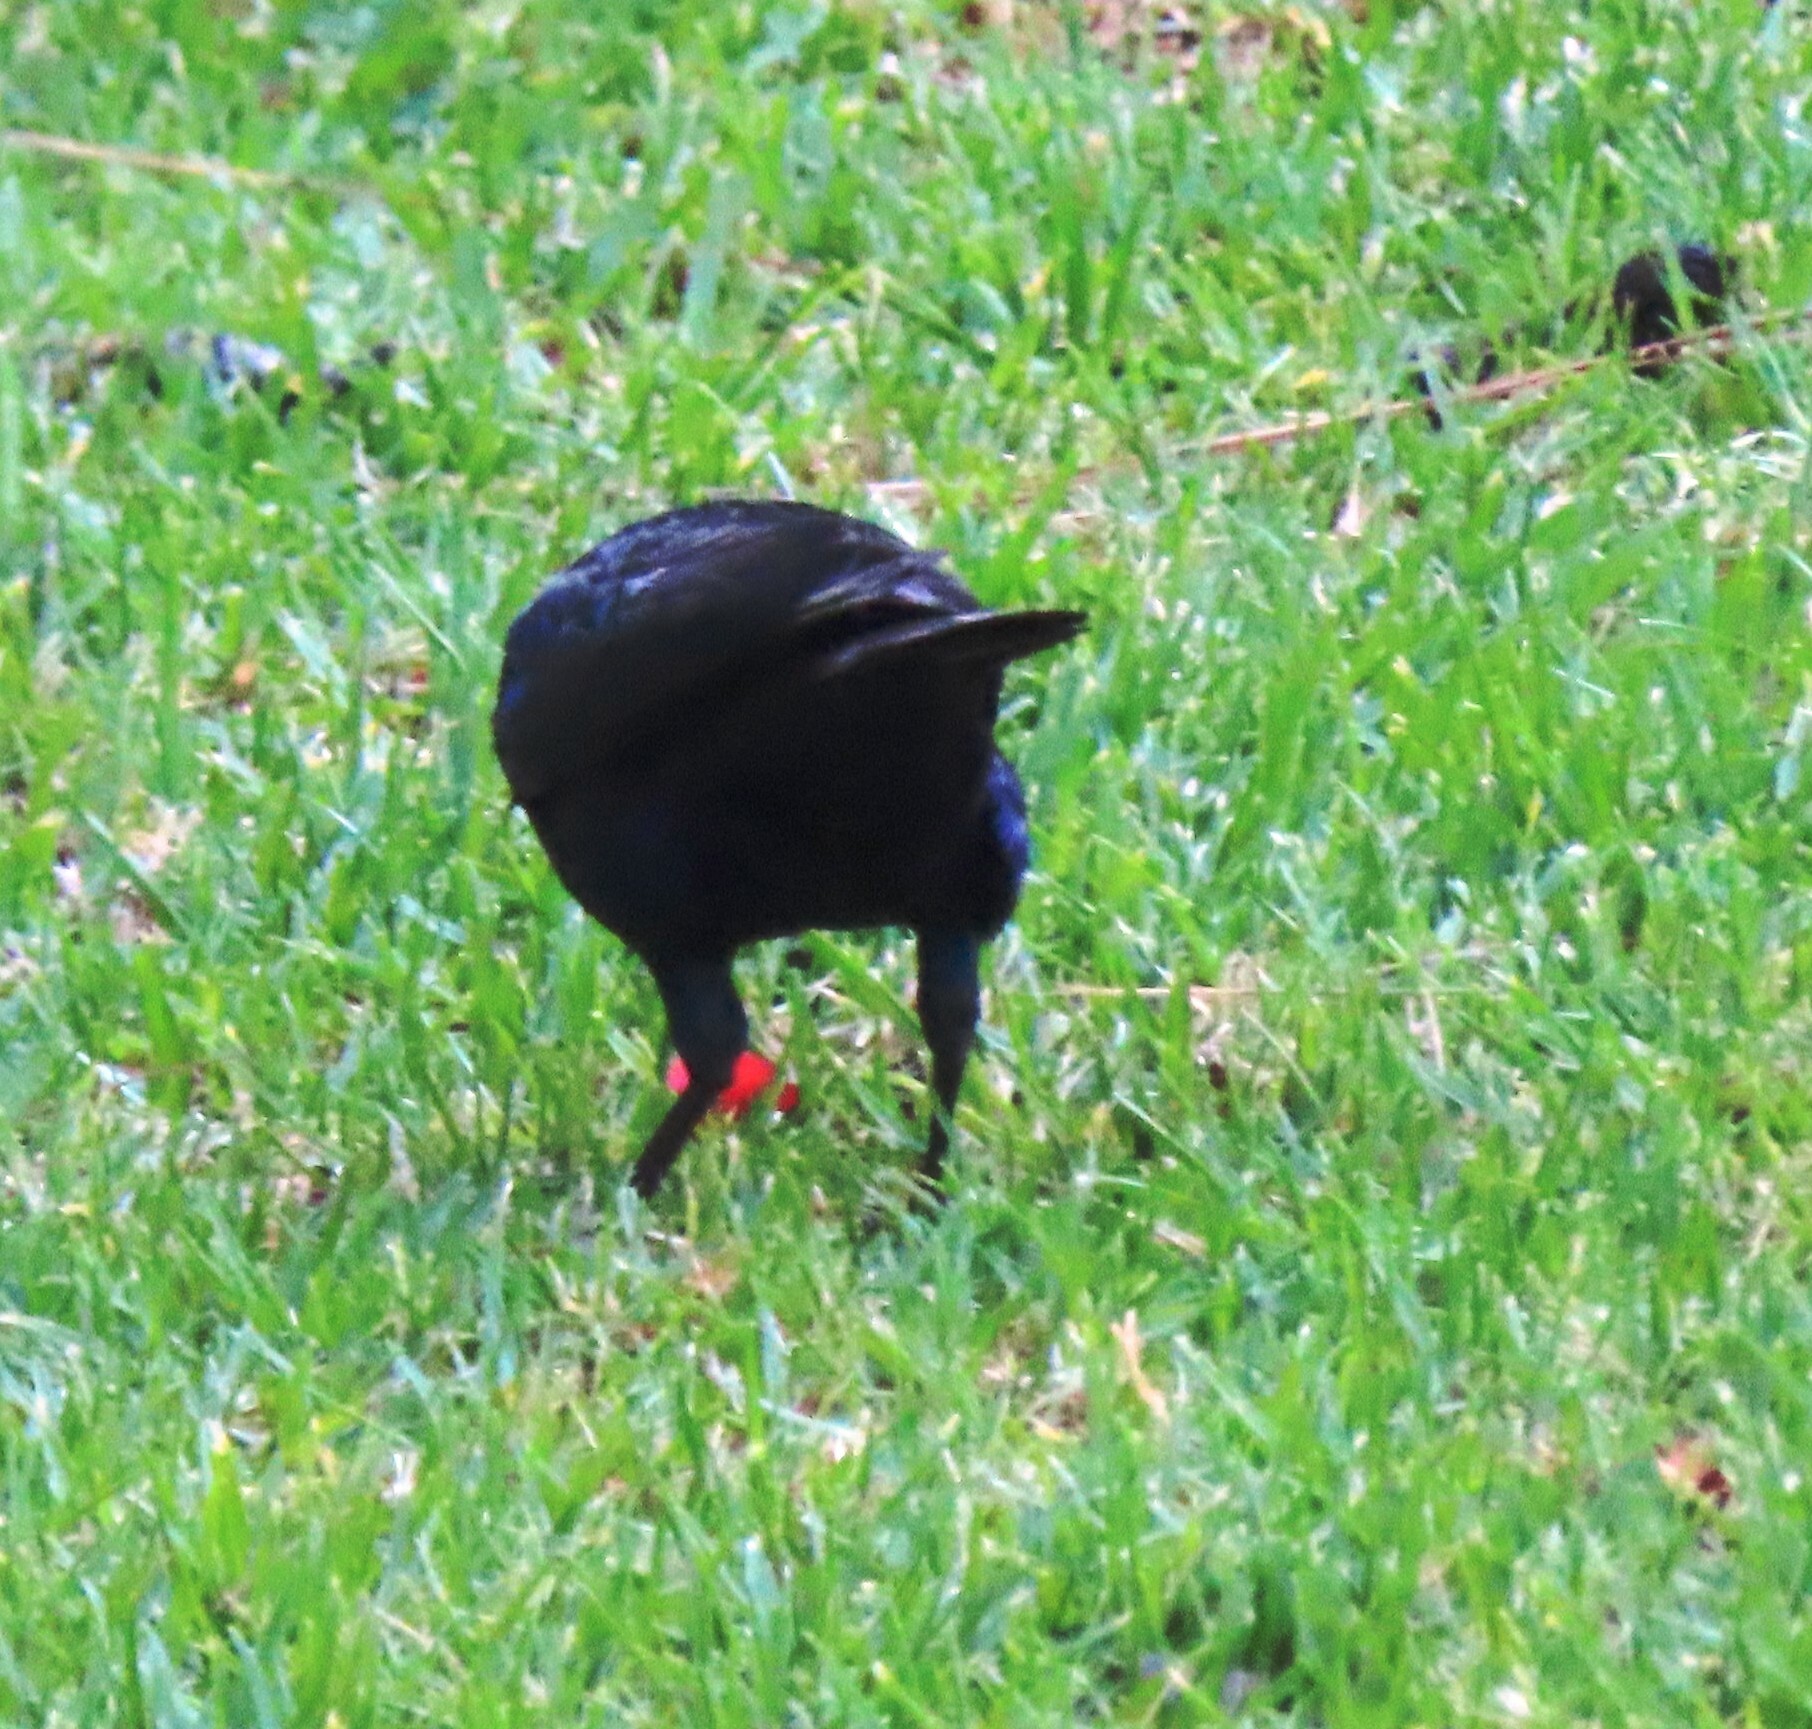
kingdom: Animalia
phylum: Chordata
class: Aves
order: Passeriformes
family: Sturnidae
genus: Lamprotornis
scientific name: Lamprotornis nitens
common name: Cape starling
